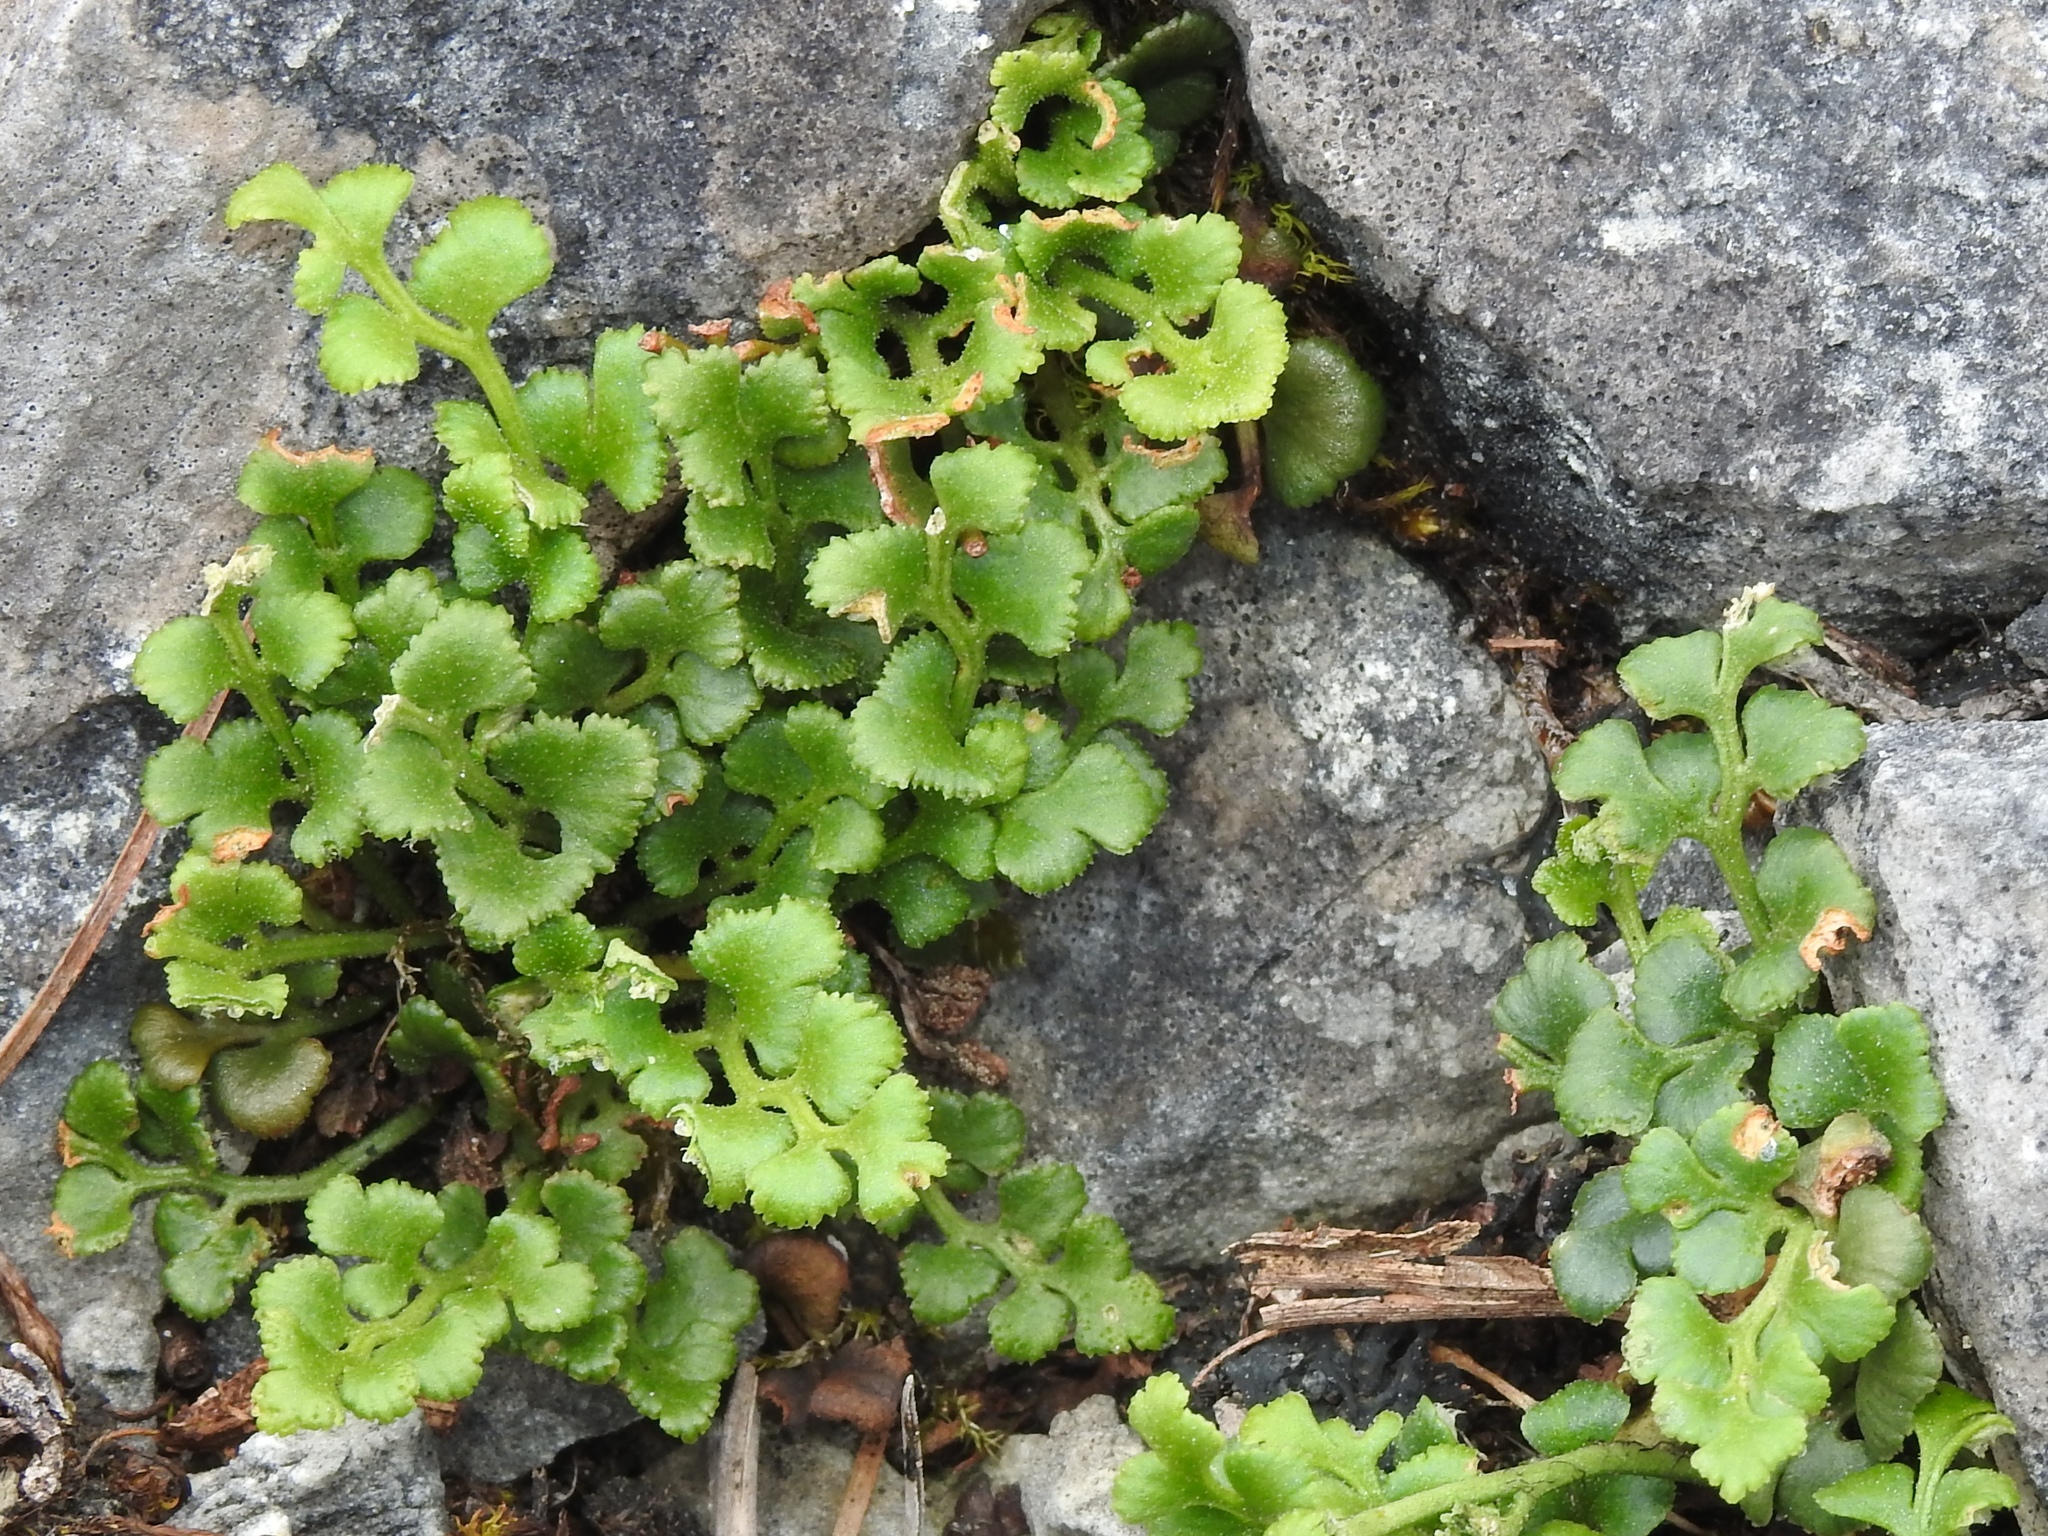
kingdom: Plantae
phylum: Tracheophyta
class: Polypodiopsida
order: Polypodiales
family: Aspleniaceae
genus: Asplenium
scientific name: Asplenium ruta-muraria
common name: Wall-rue
